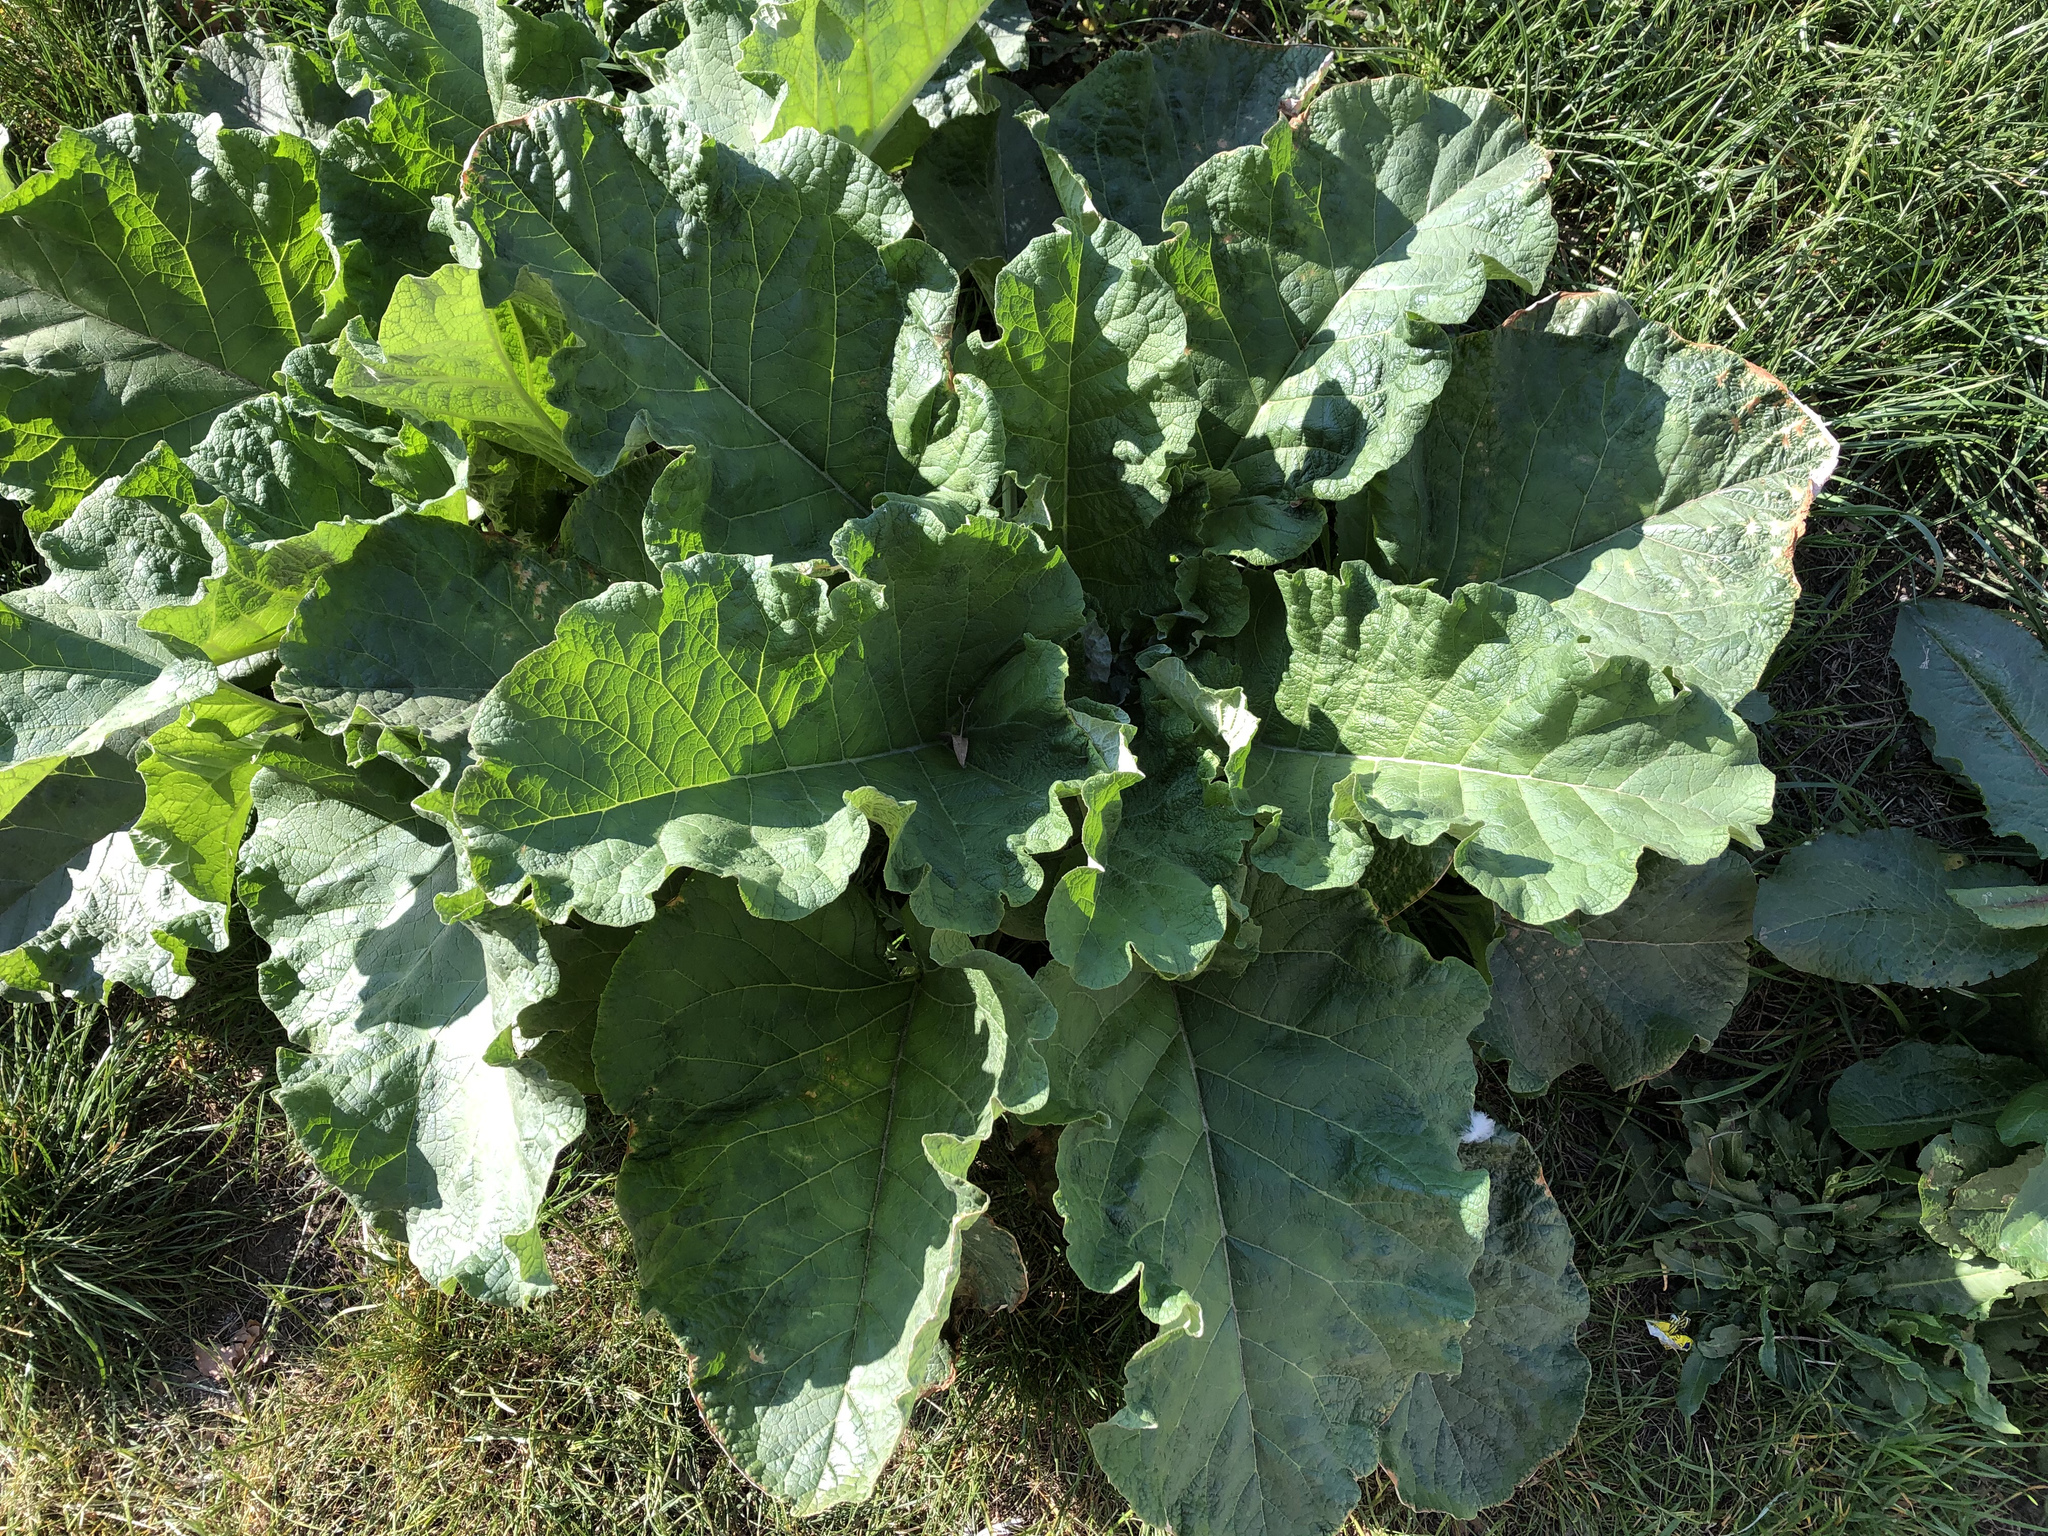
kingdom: Plantae
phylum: Tracheophyta
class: Magnoliopsida
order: Asterales
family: Asteraceae
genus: Arctium
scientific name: Arctium
